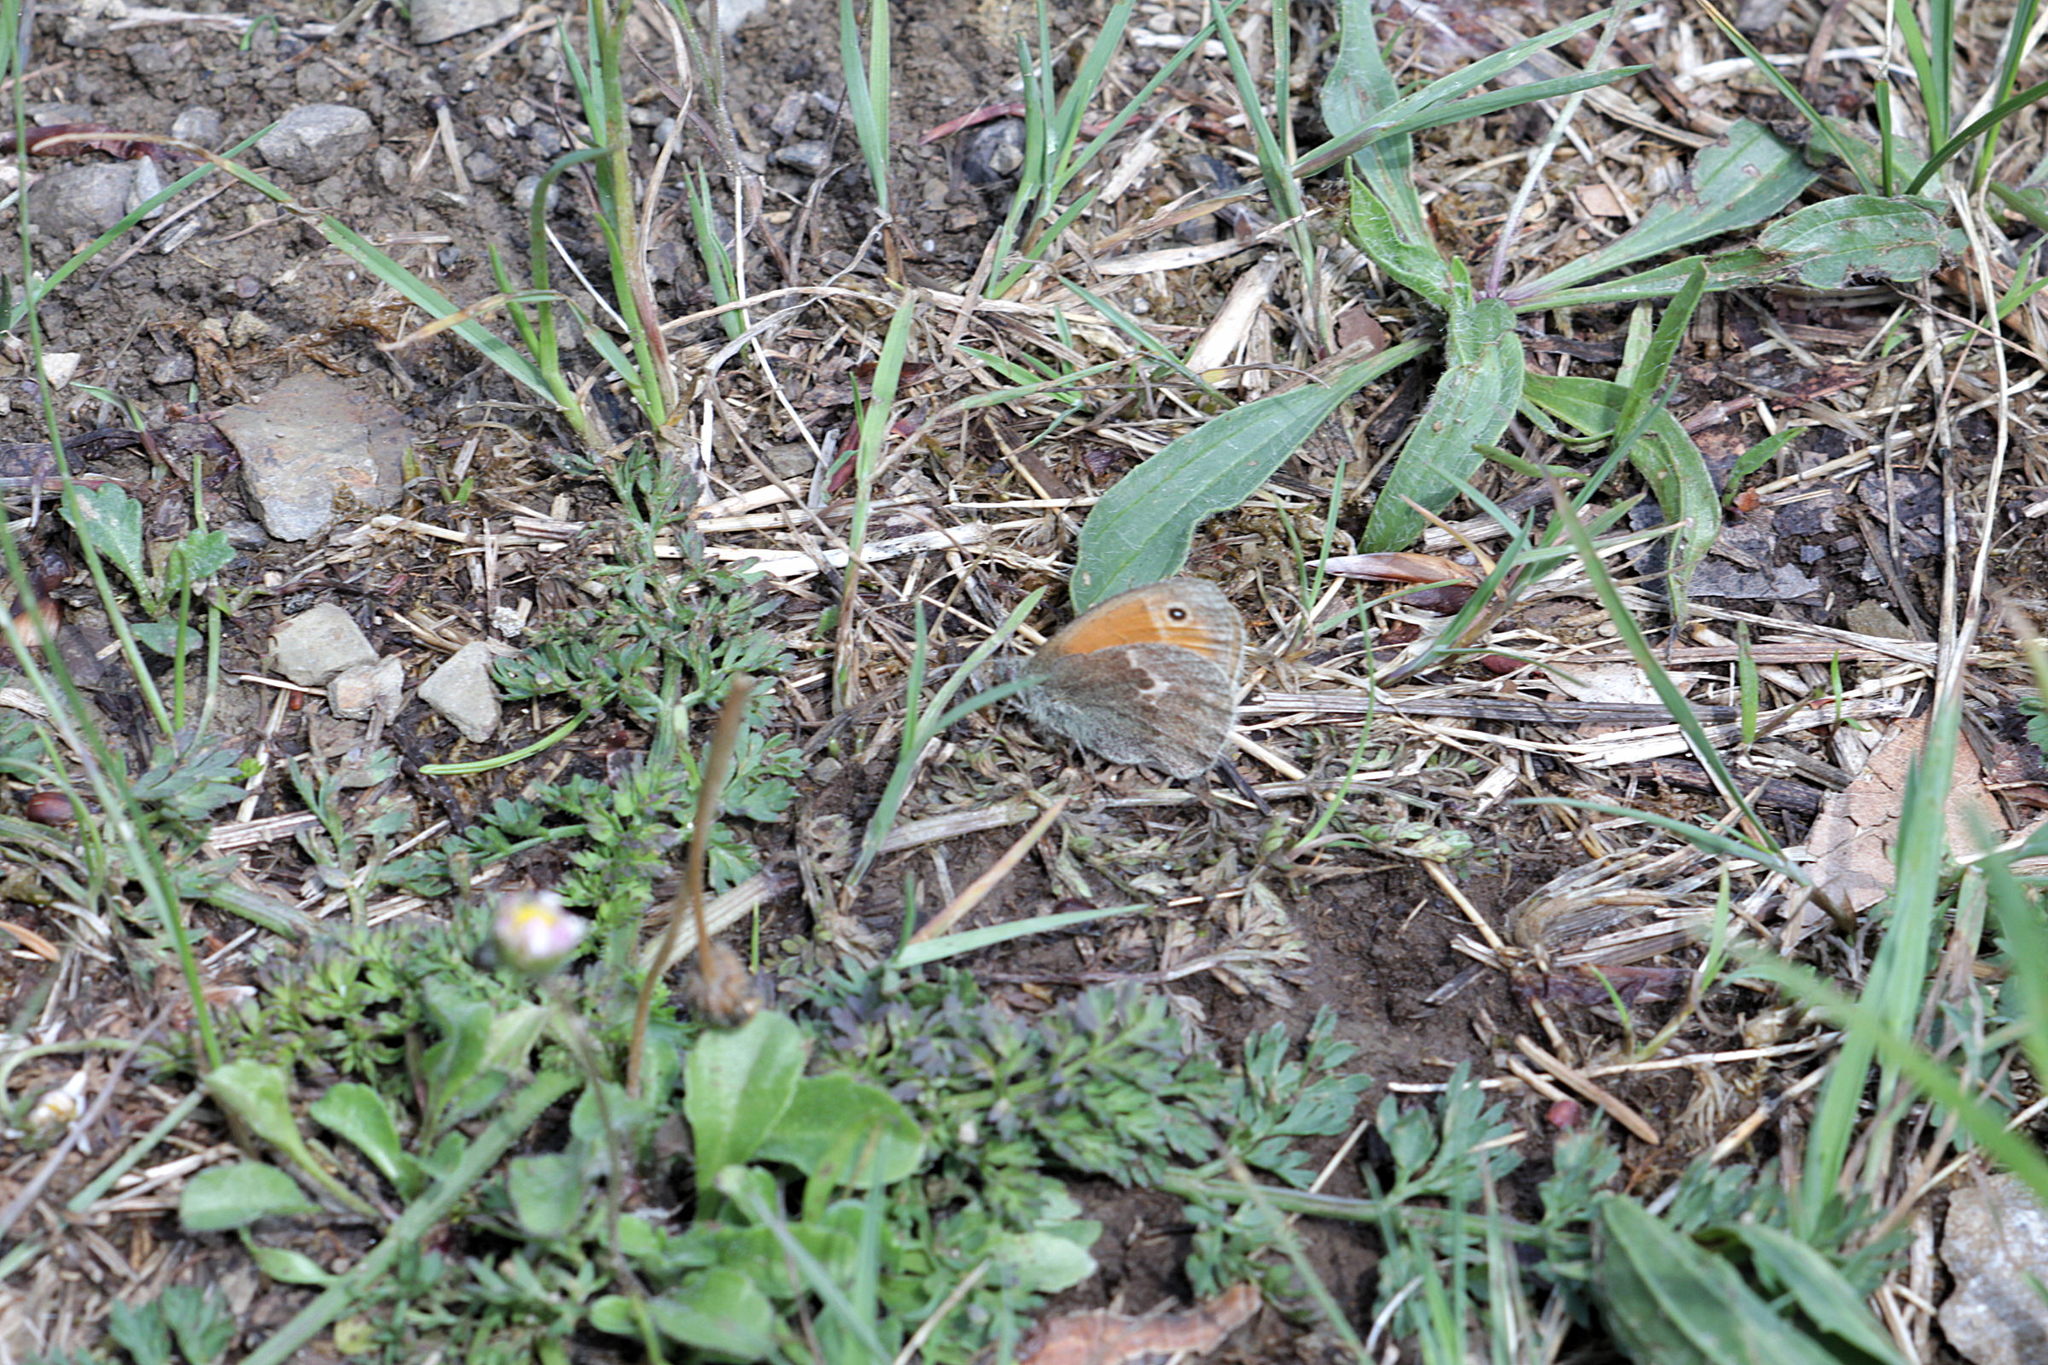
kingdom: Animalia
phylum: Arthropoda
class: Insecta
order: Lepidoptera
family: Nymphalidae
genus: Coenonympha
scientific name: Coenonympha pamphilus
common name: Small heath
